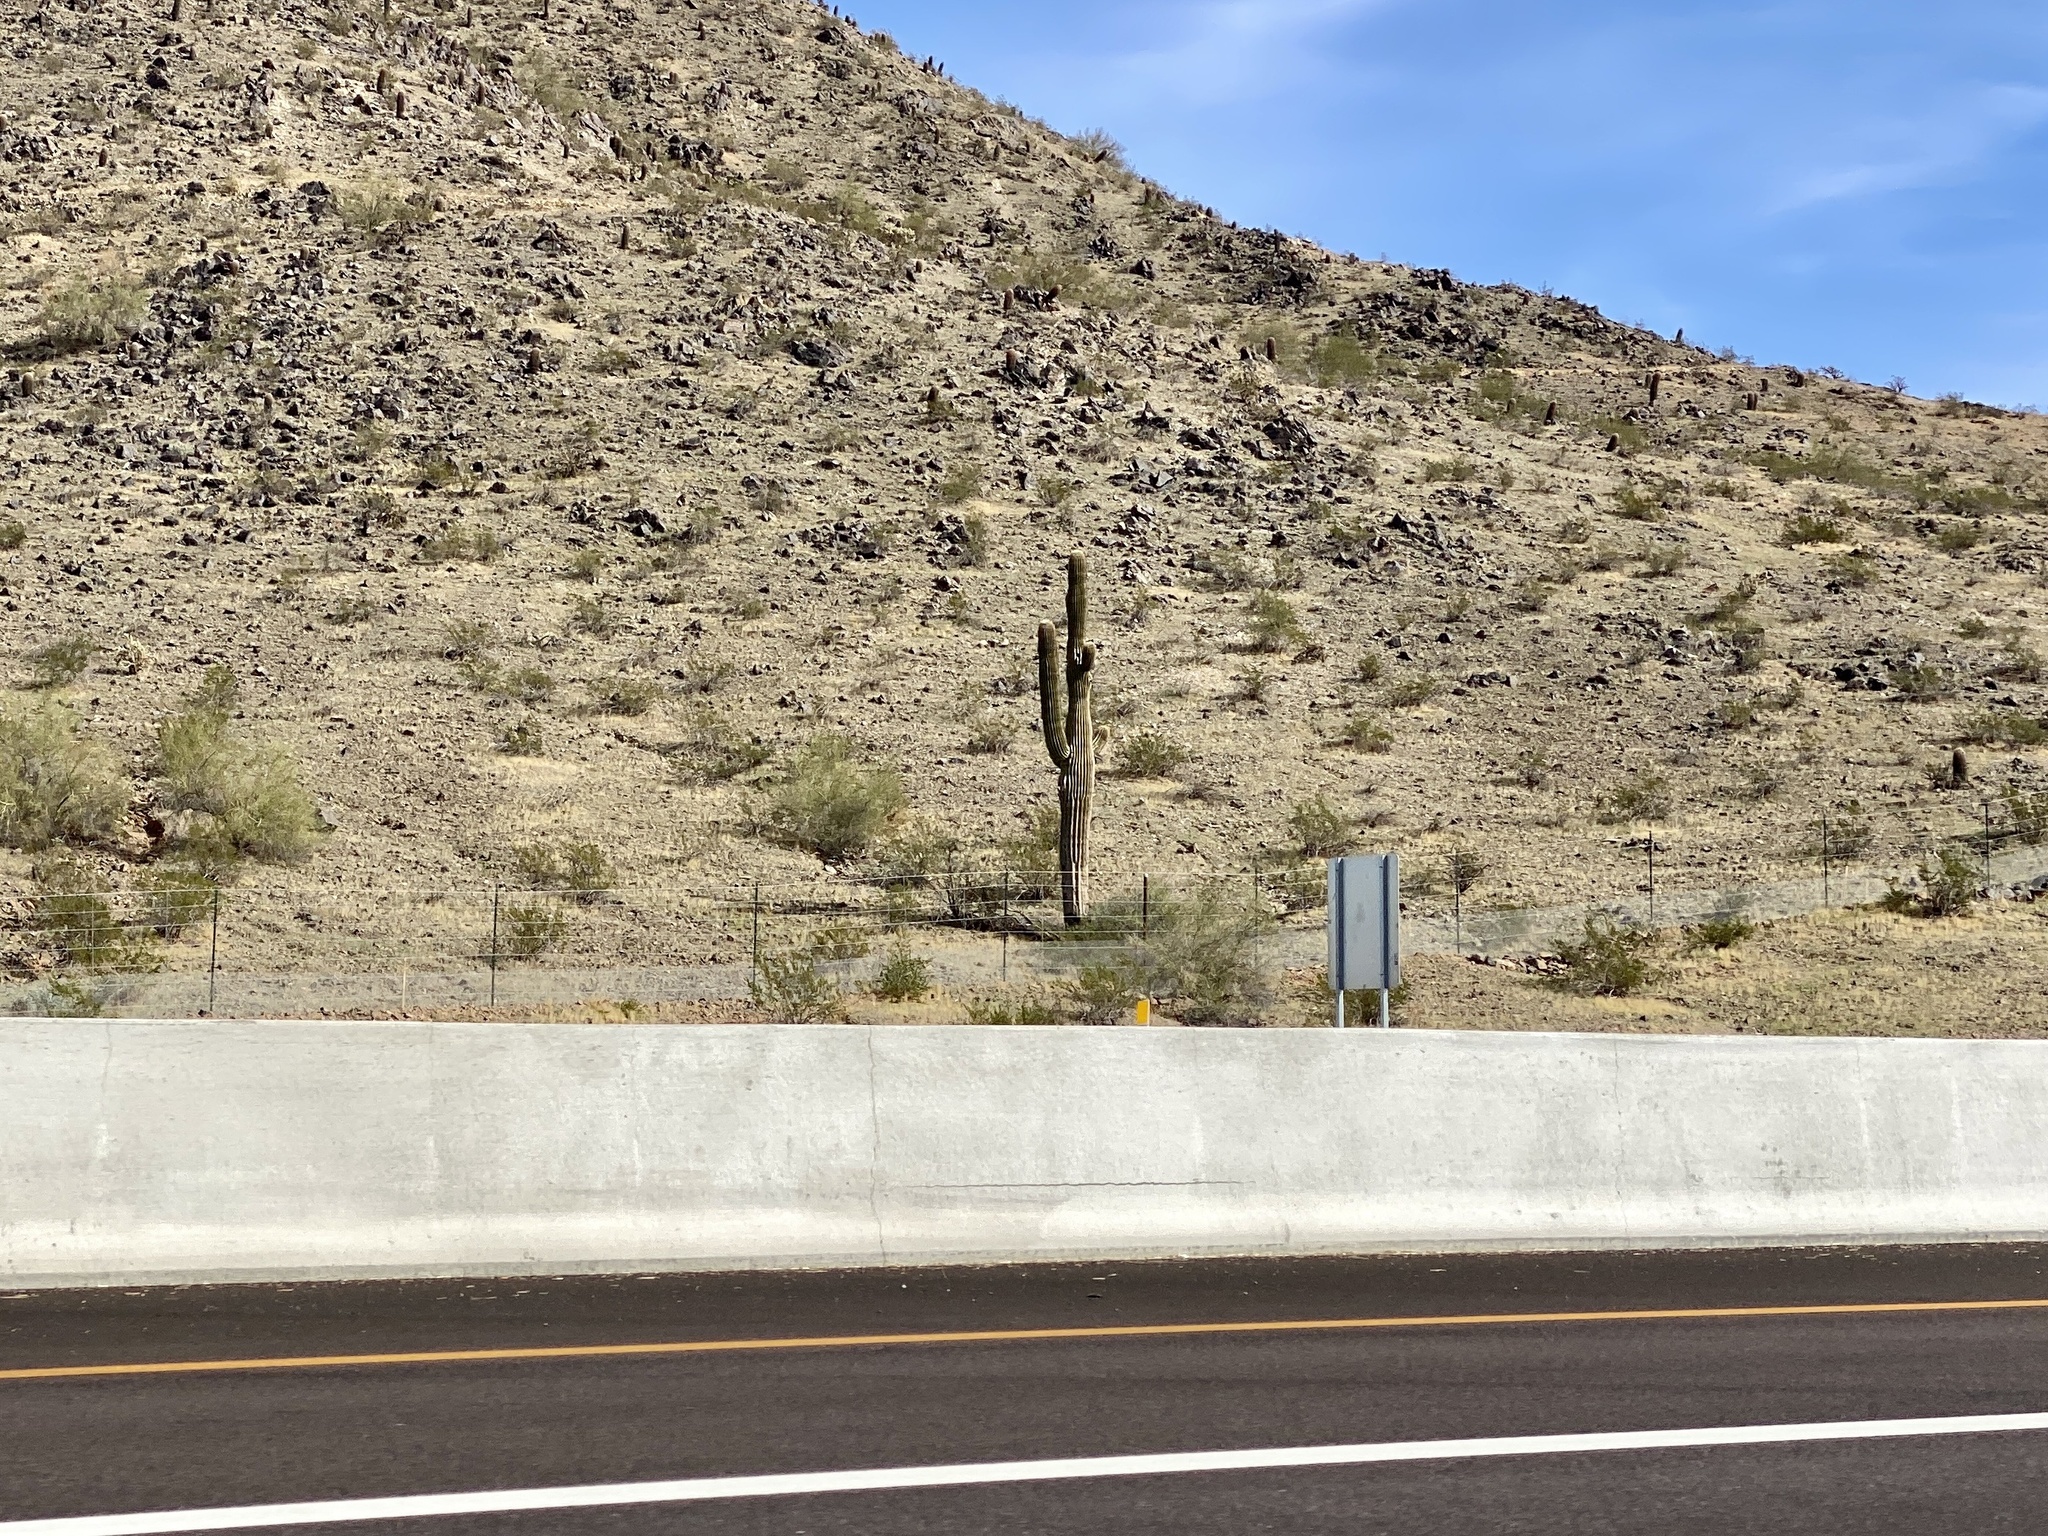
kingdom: Plantae
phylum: Tracheophyta
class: Magnoliopsida
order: Caryophyllales
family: Cactaceae
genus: Carnegiea
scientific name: Carnegiea gigantea
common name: Saguaro
